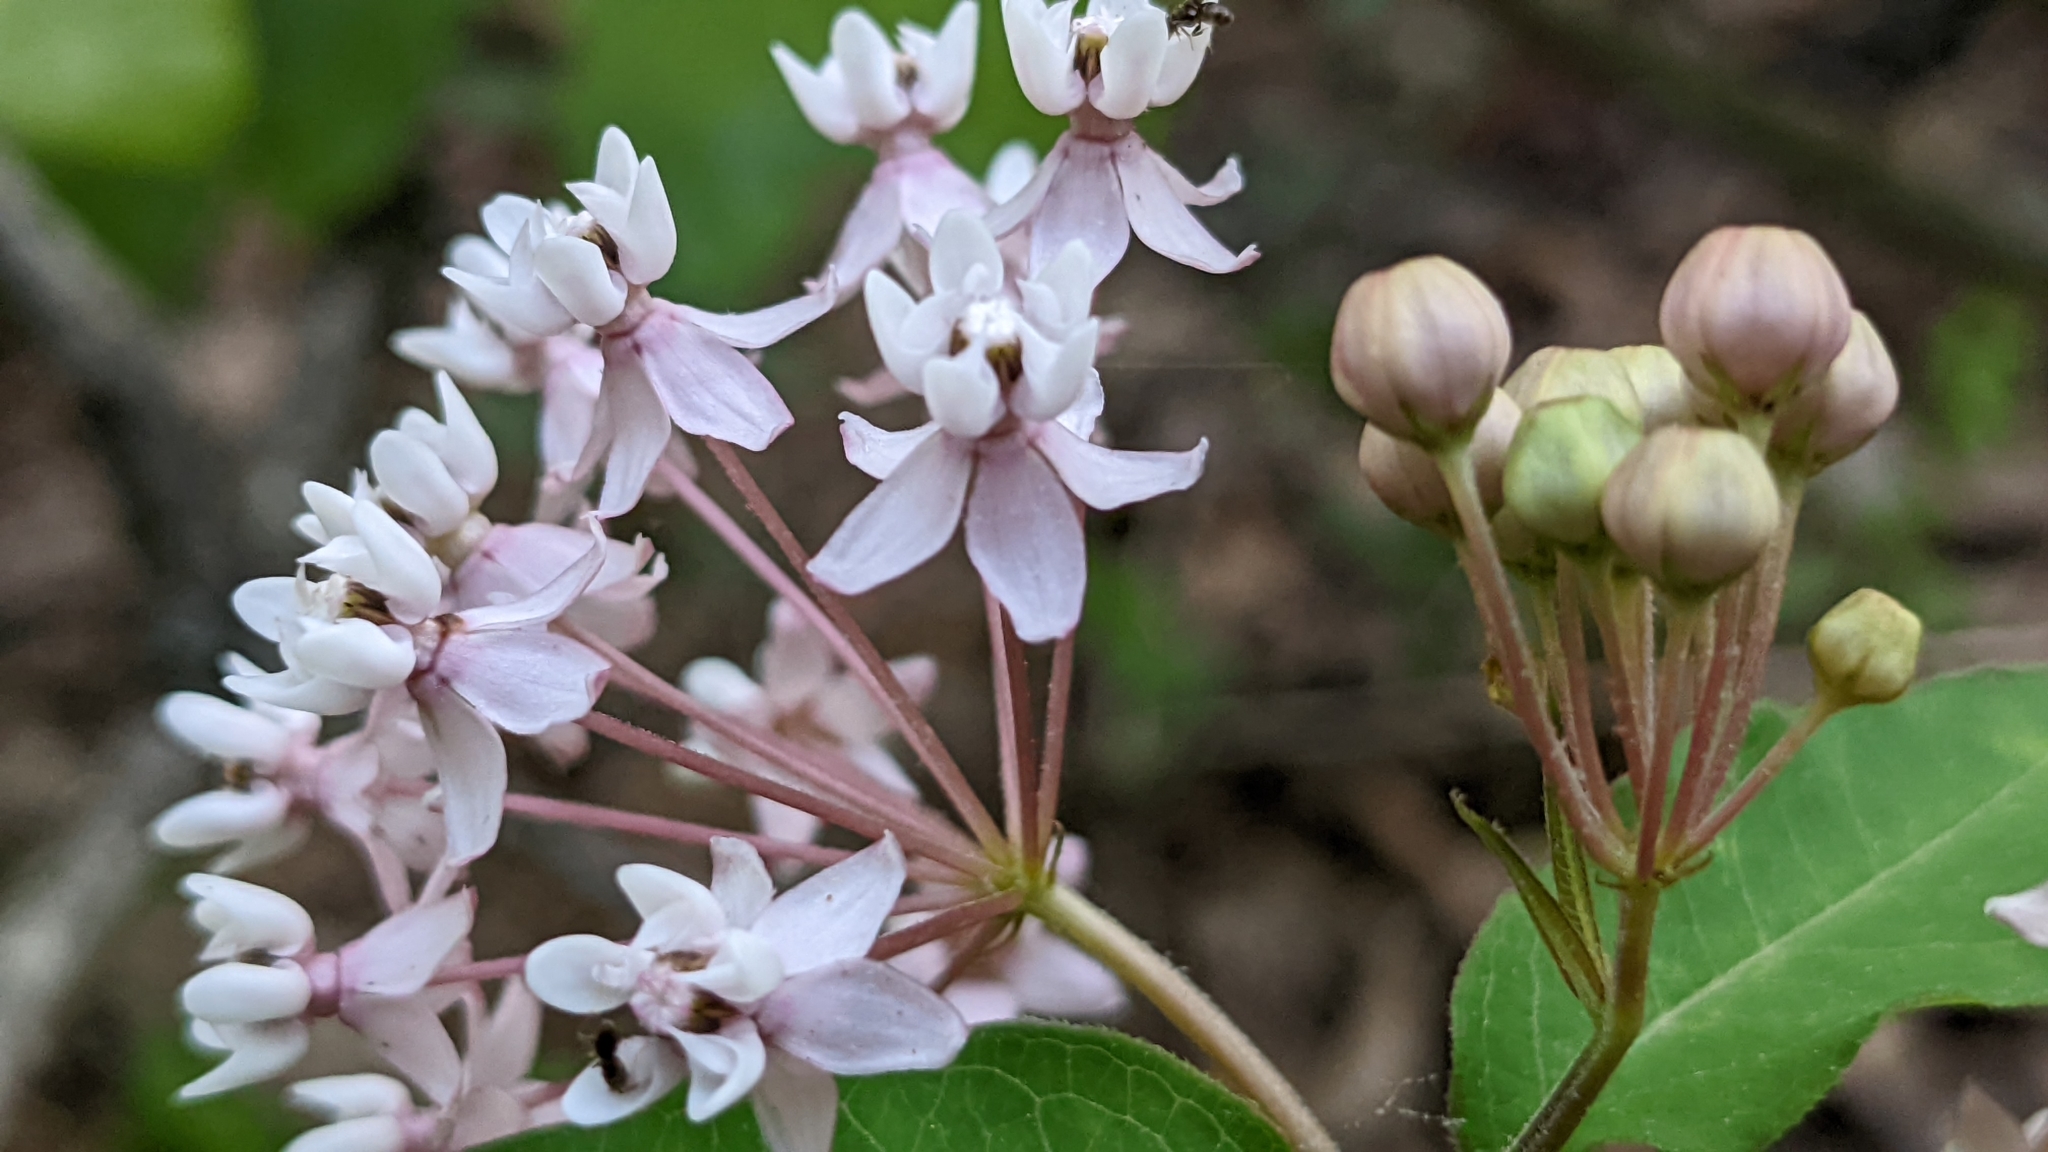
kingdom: Plantae
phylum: Tracheophyta
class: Magnoliopsida
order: Gentianales
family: Apocynaceae
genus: Asclepias
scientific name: Asclepias quadrifolia
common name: Whorled milkweed
